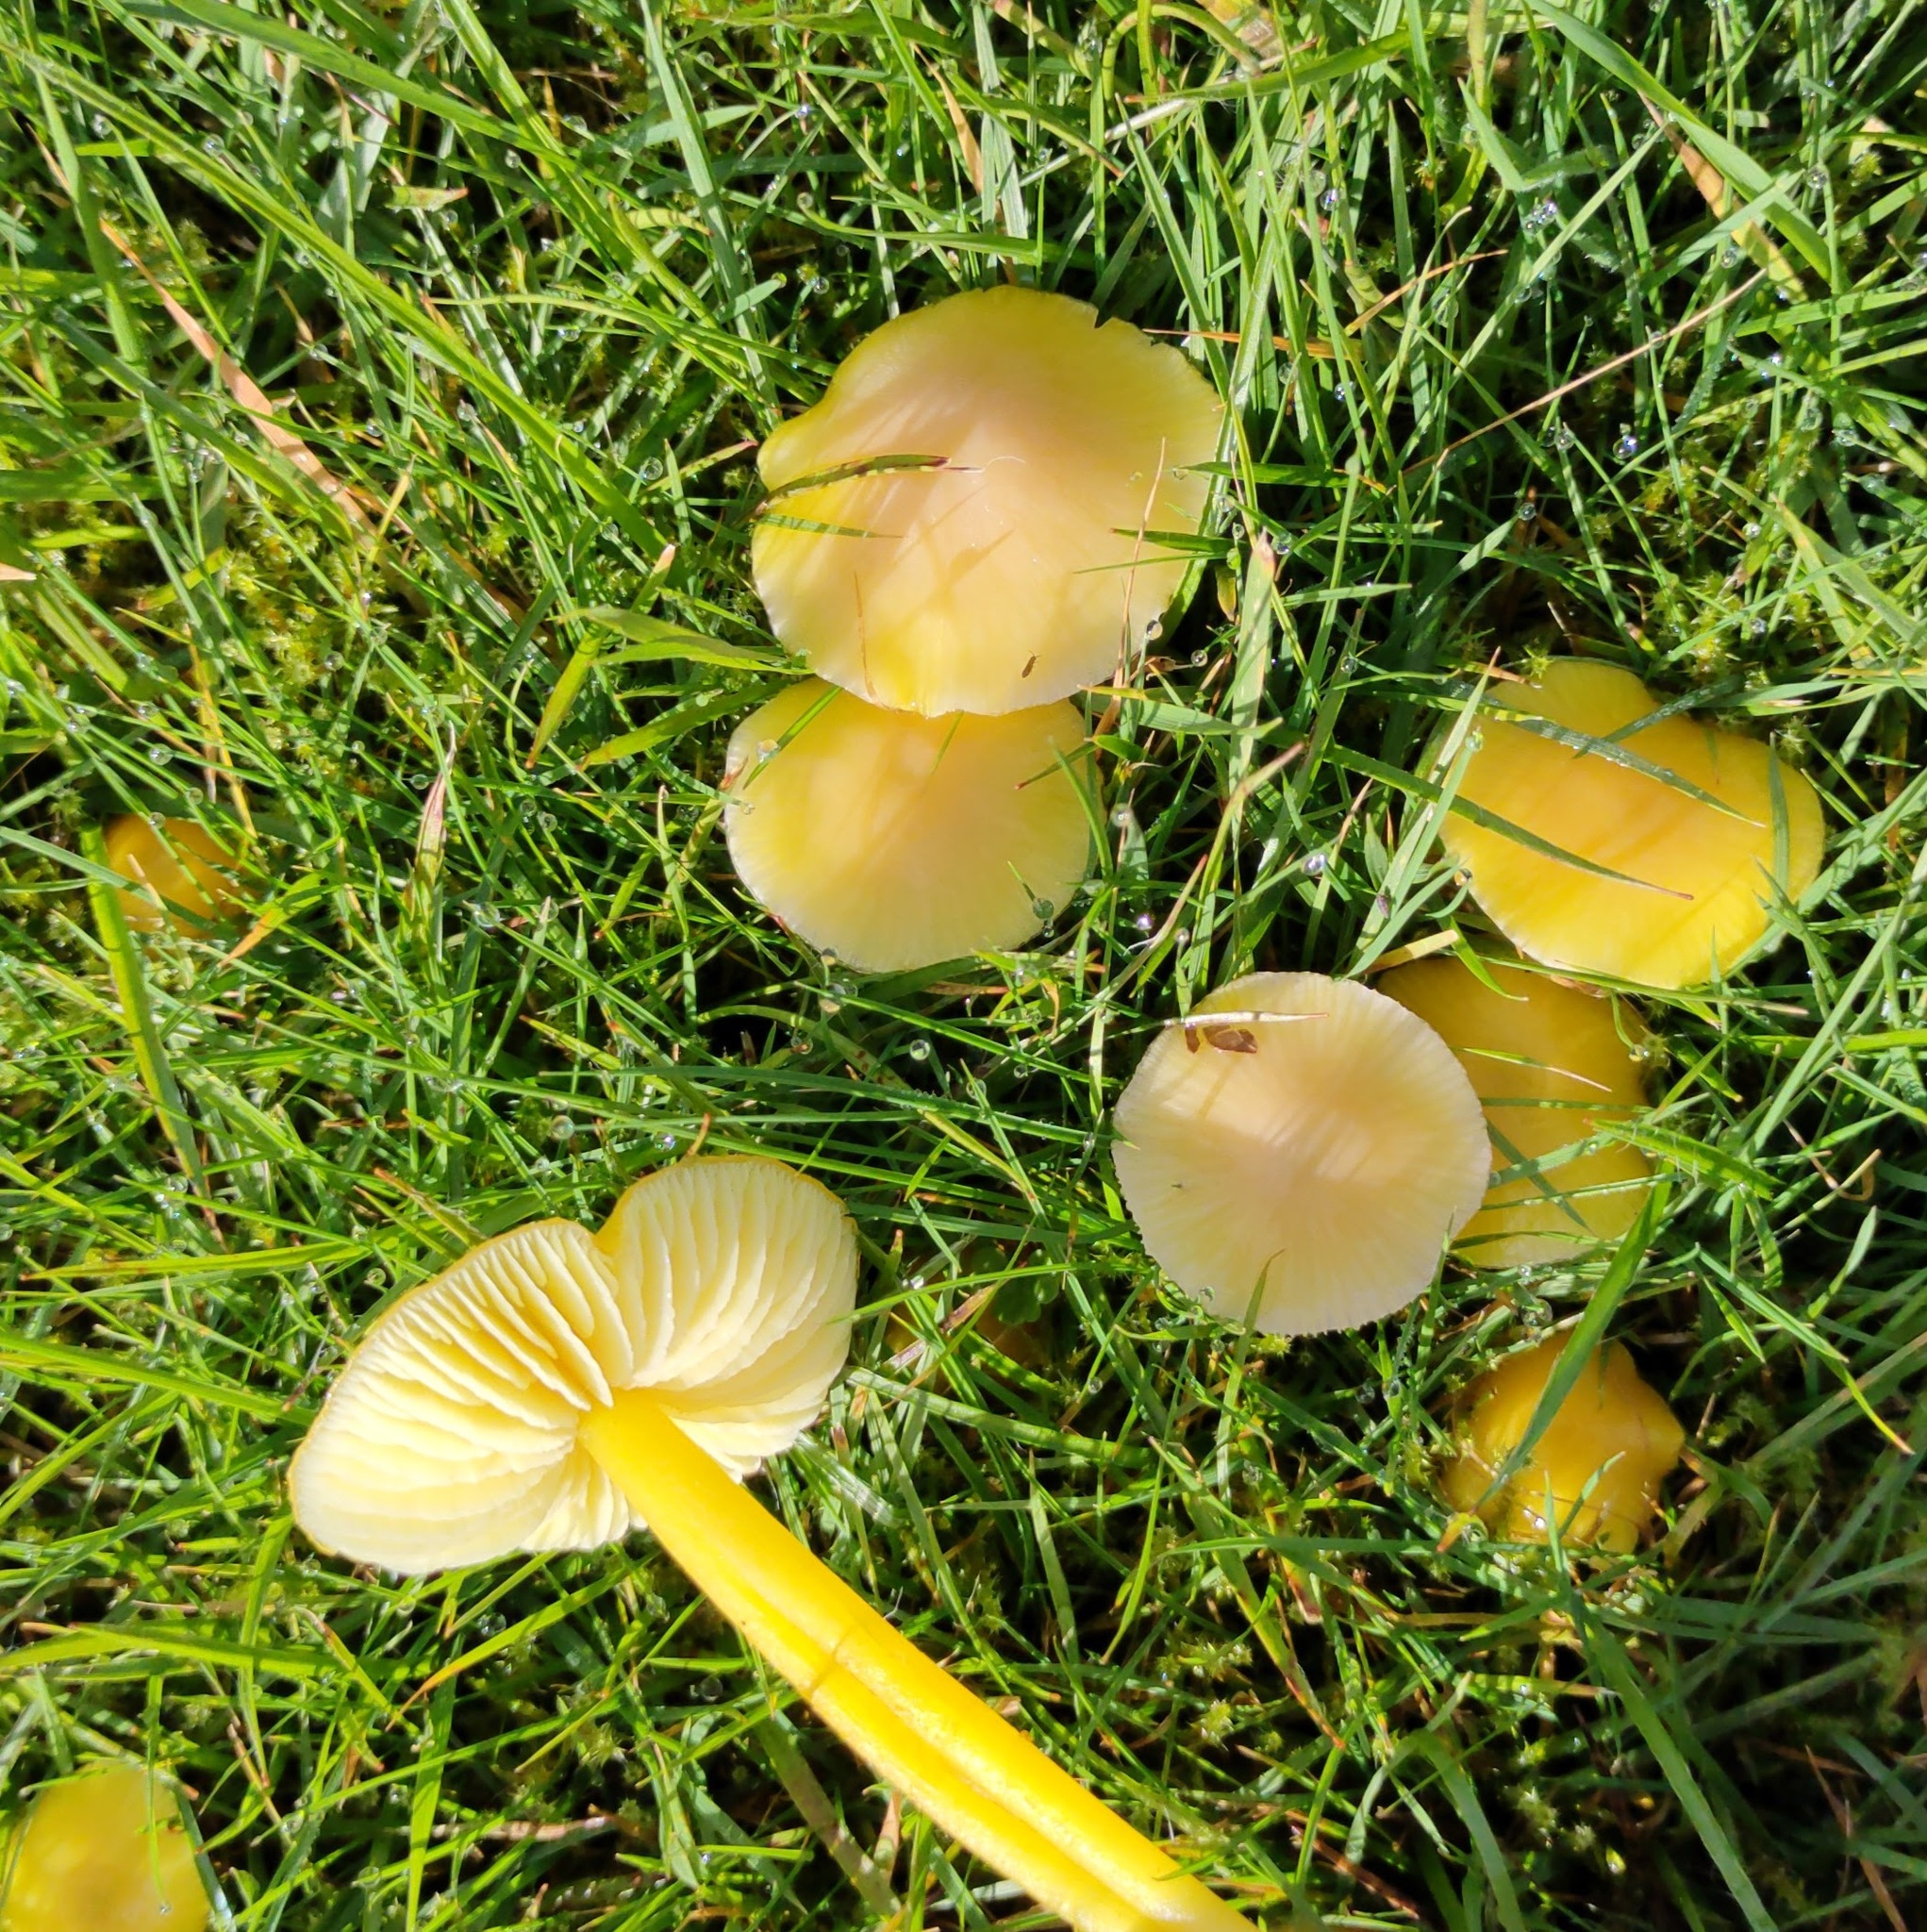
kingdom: Fungi
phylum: Basidiomycota
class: Agaricomycetes
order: Agaricales
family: Hygrophoraceae
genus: Hygrocybe
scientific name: Hygrocybe chlorophana
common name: Golden waxcap
